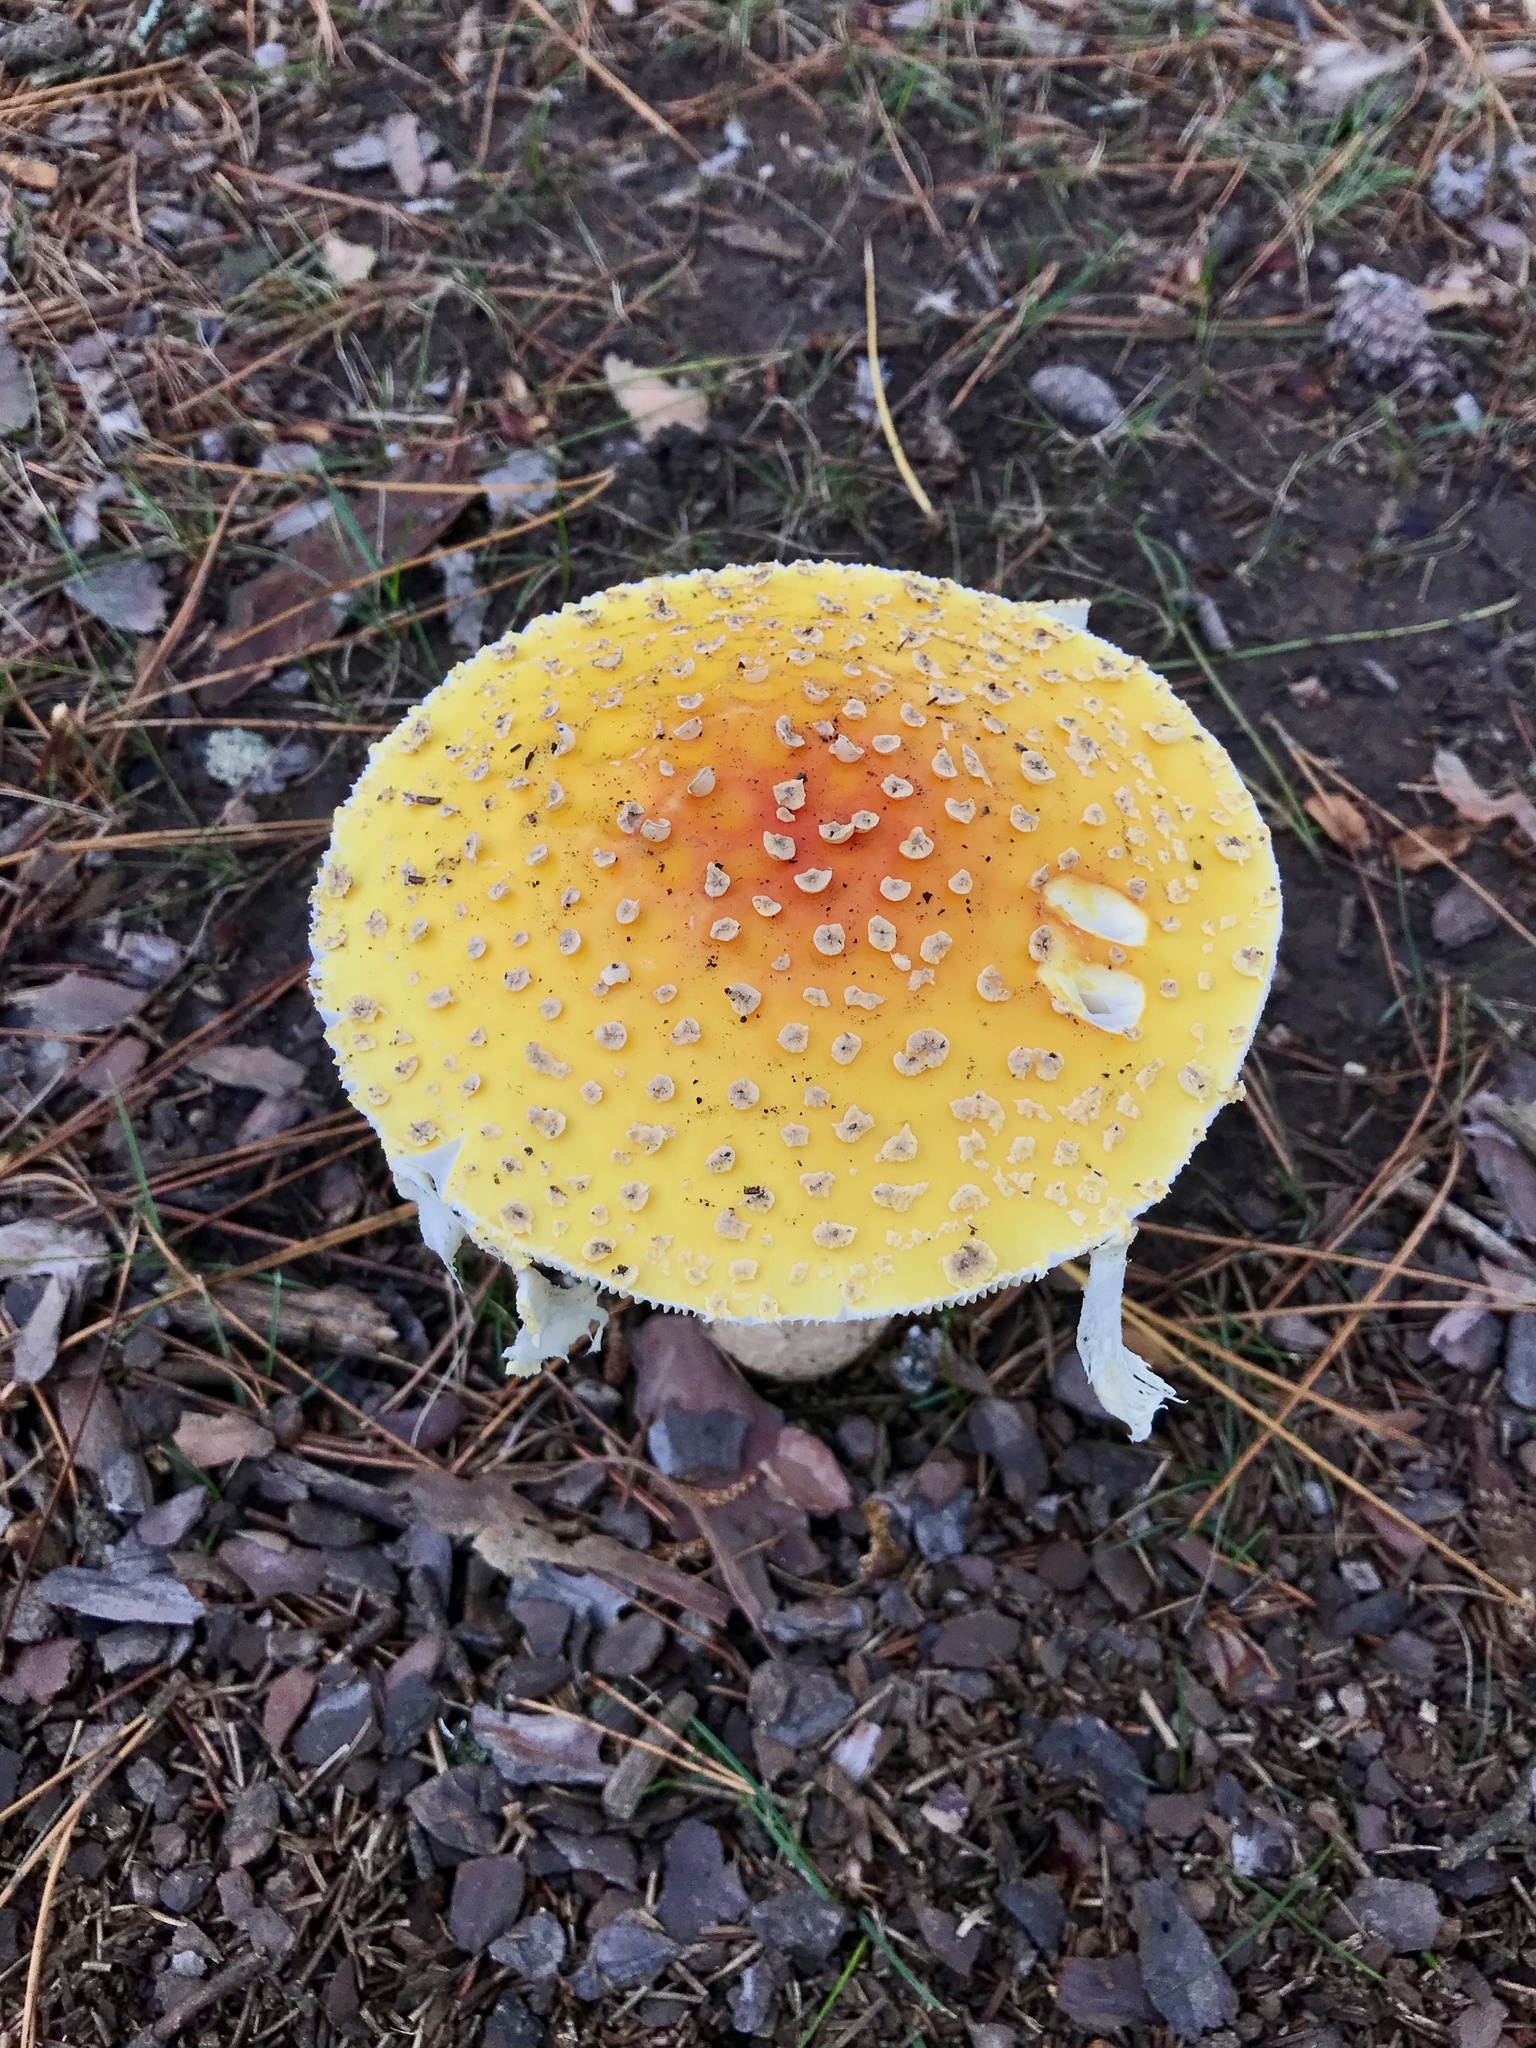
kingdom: Fungi
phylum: Basidiomycota
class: Agaricomycetes
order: Agaricales
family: Amanitaceae
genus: Amanita
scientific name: Amanita muscaria
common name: Fly agaric
